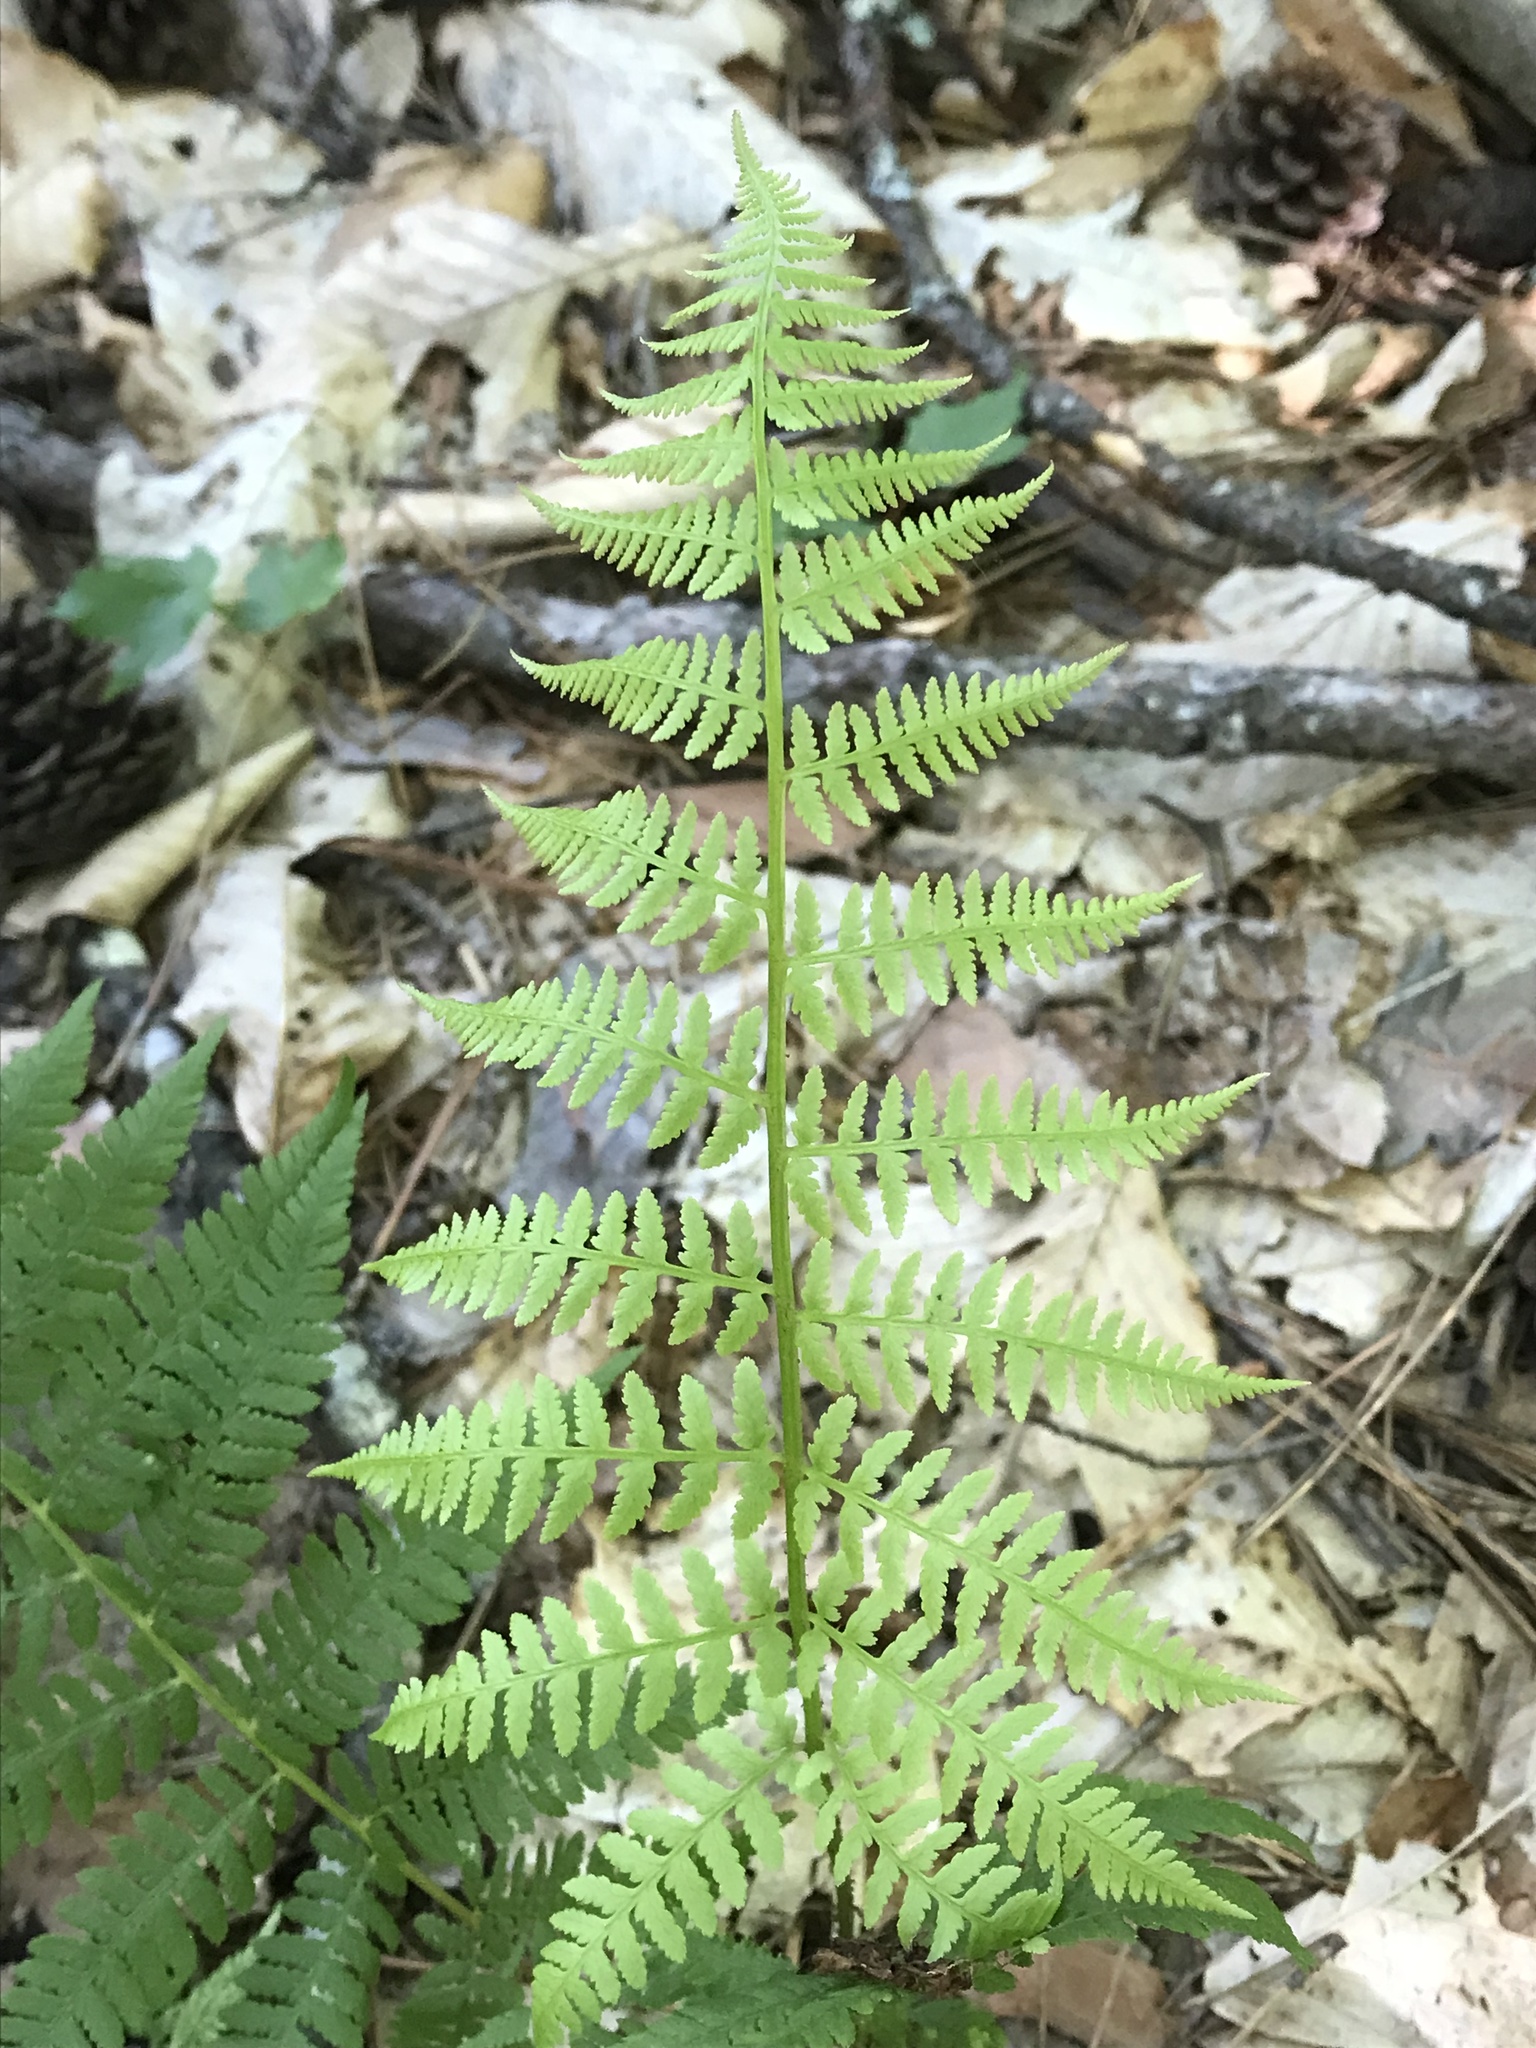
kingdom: Plantae
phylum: Tracheophyta
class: Polypodiopsida
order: Polypodiales
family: Athyriaceae
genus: Athyrium
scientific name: Athyrium angustum
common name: Northern lady fern
